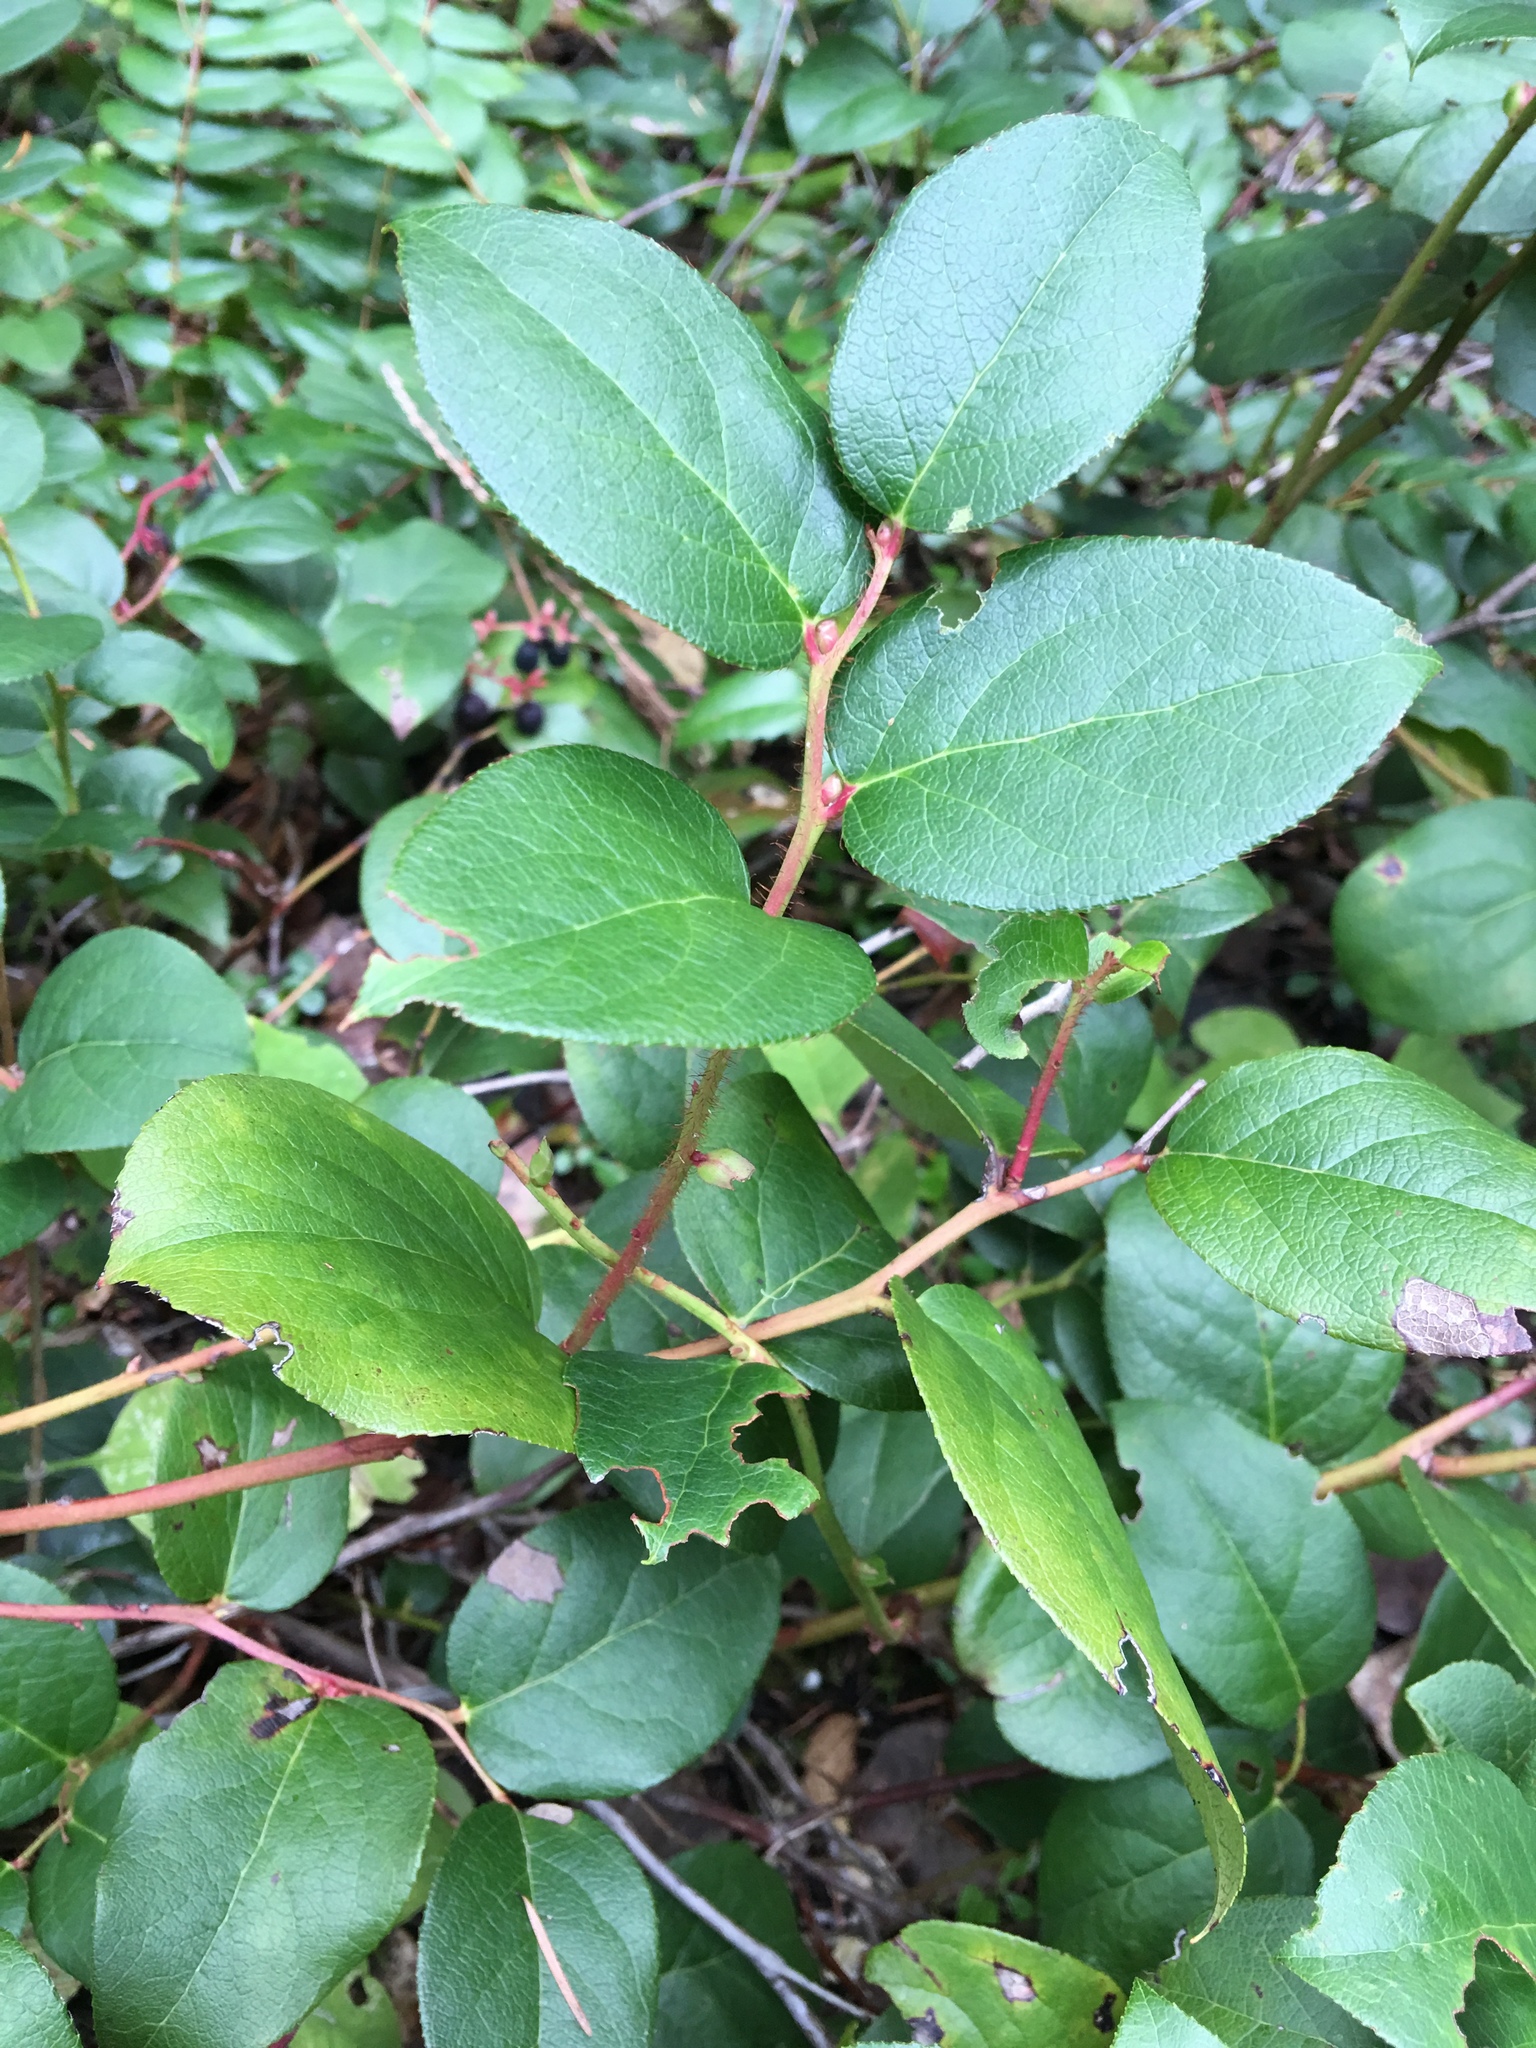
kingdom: Plantae
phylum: Tracheophyta
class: Magnoliopsida
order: Ericales
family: Ericaceae
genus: Gaultheria
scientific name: Gaultheria shallon
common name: Shallon
